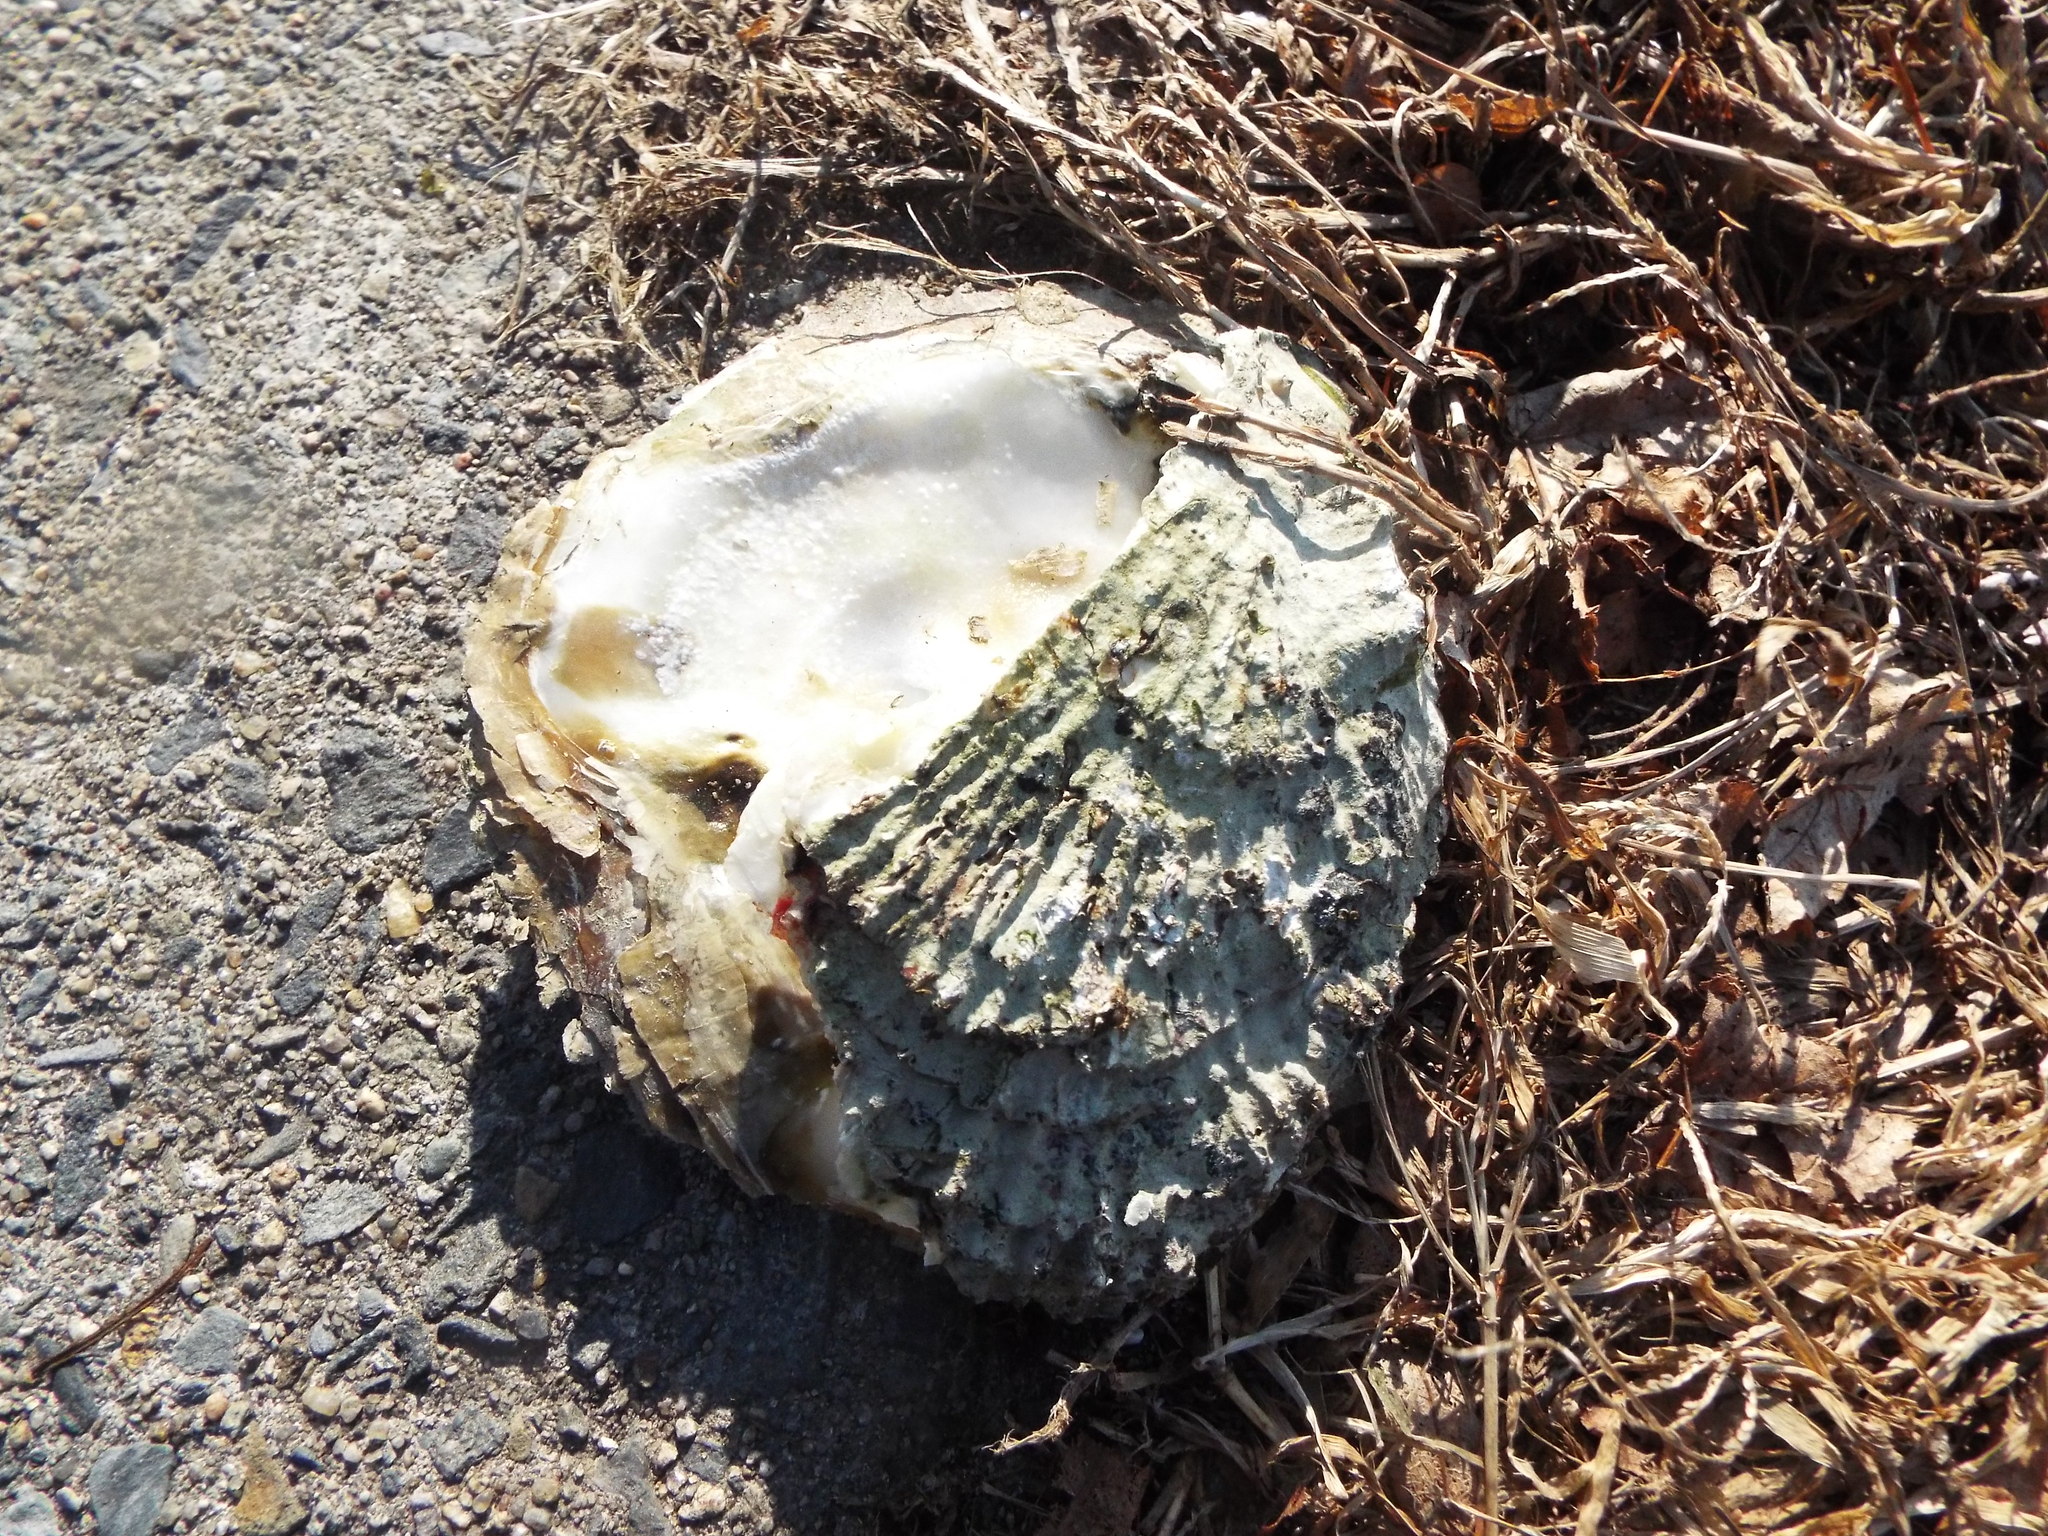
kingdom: Animalia
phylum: Mollusca
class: Bivalvia
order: Ostreida
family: Ostreidae
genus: Ostrea
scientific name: Ostrea edulis
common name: Flat oyster
